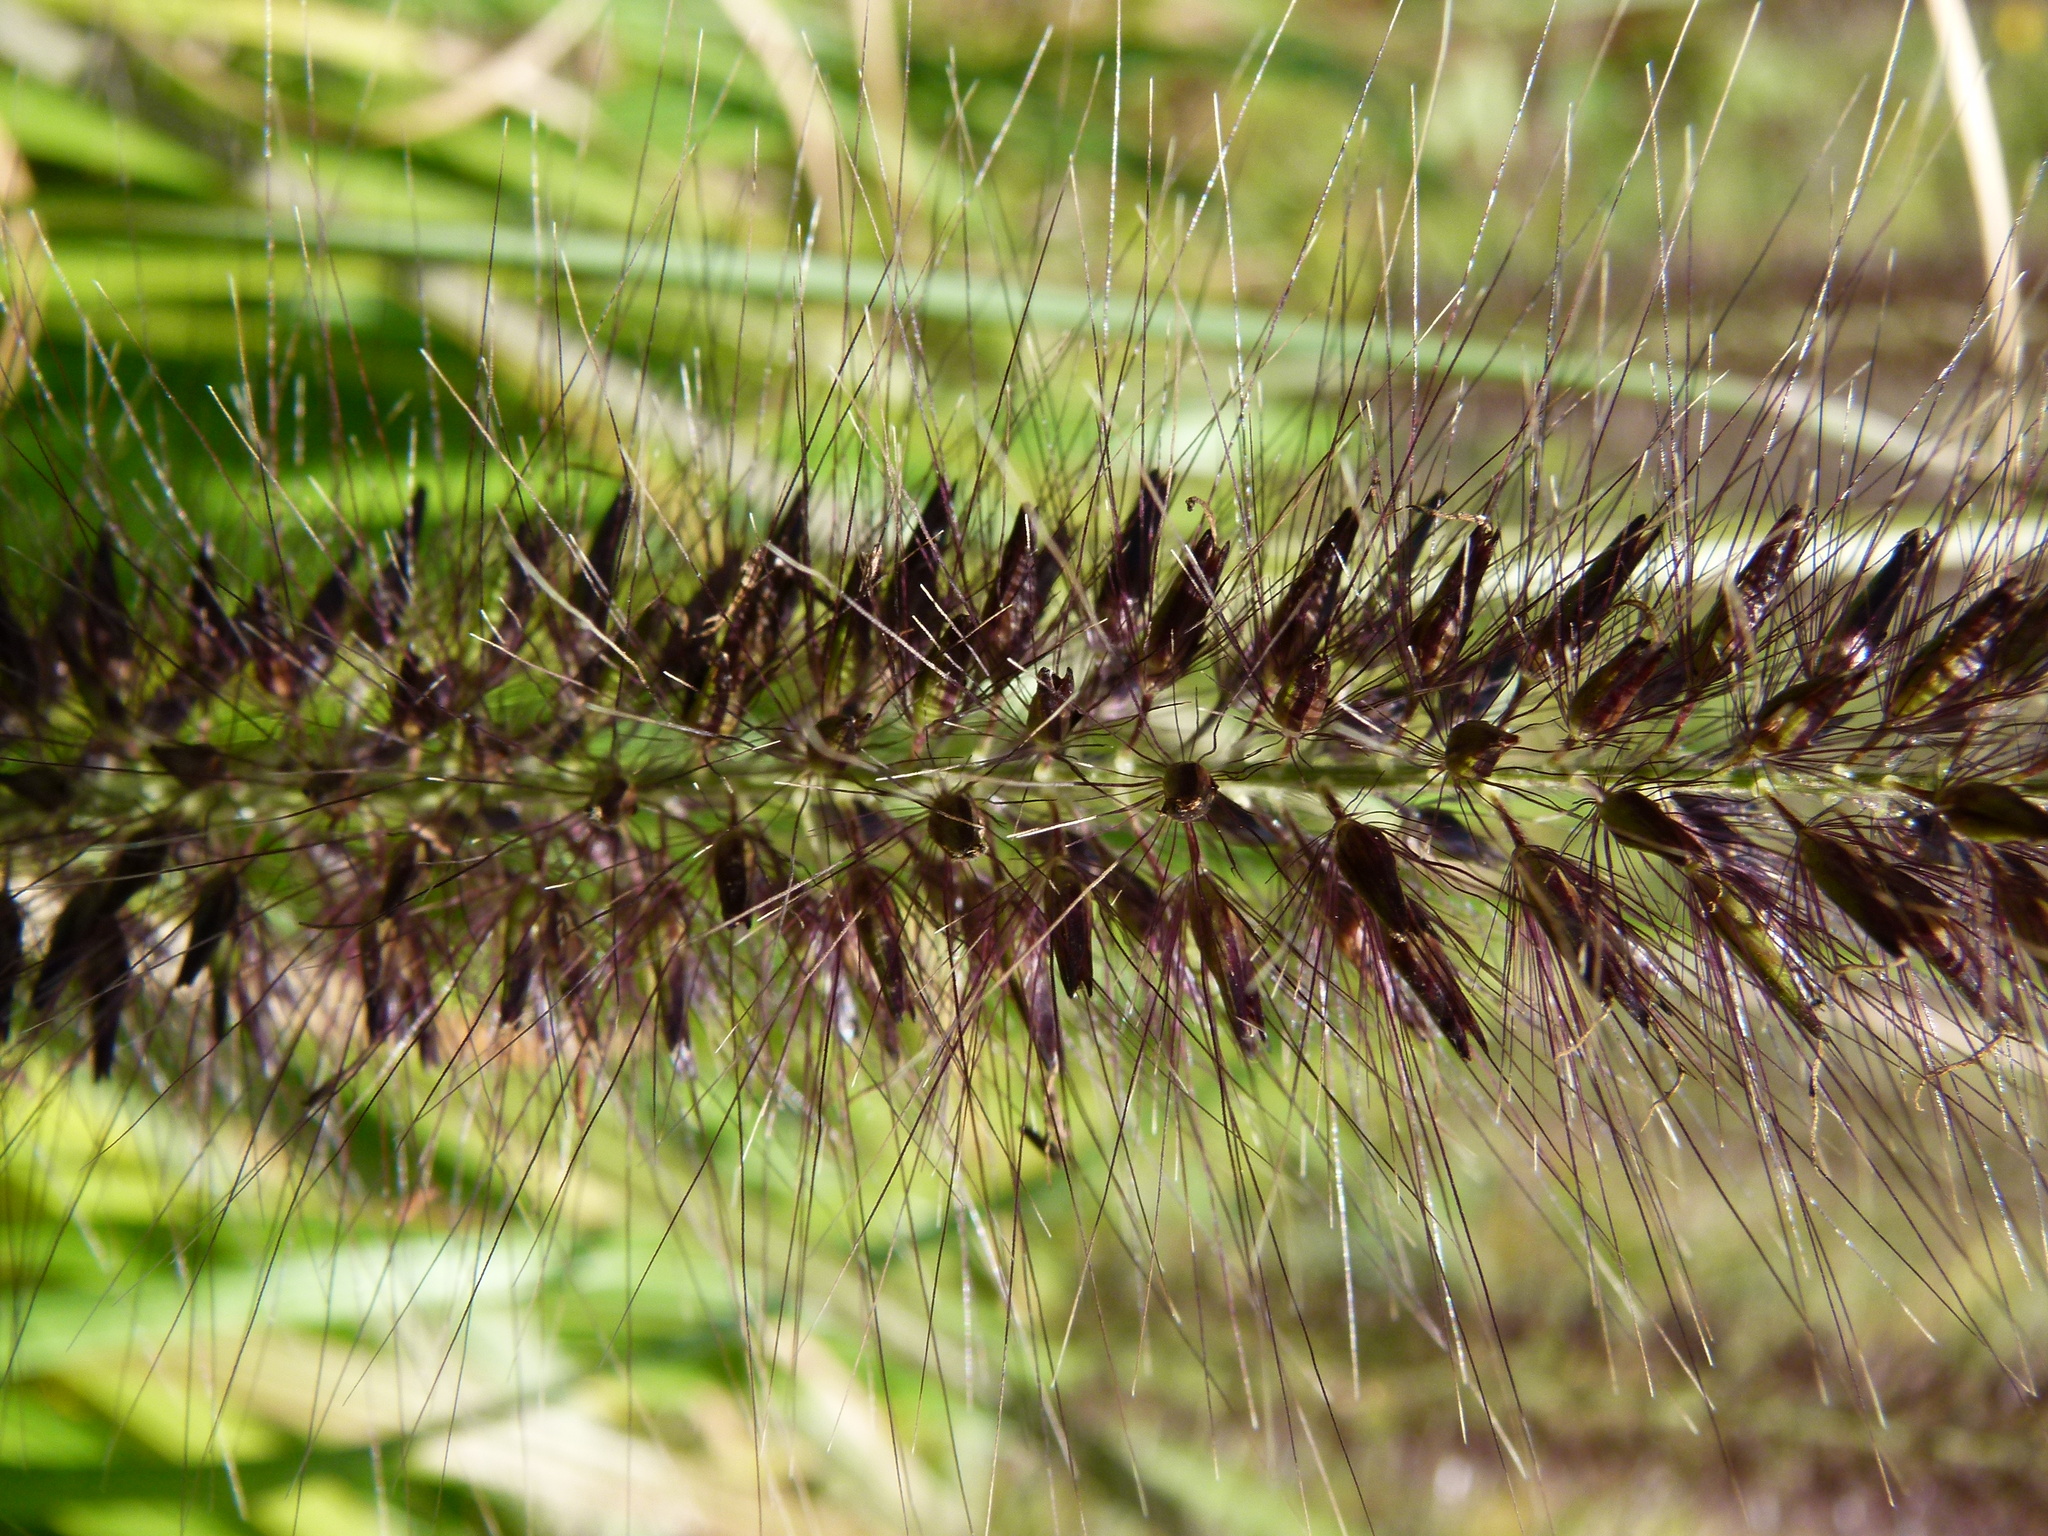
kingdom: Plantae
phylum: Tracheophyta
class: Liliopsida
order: Poales
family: Poaceae
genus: Cenchrus
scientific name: Cenchrus alopecuroides
